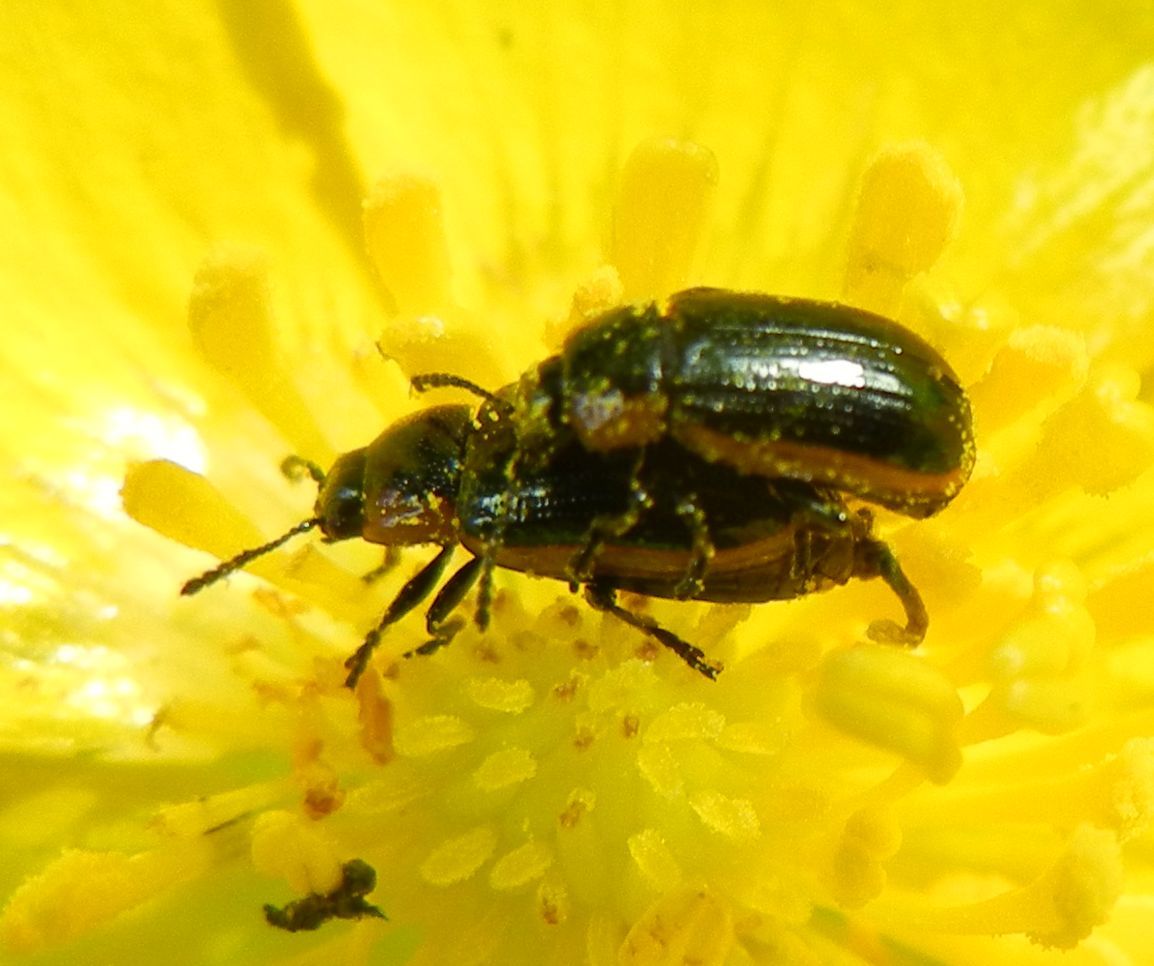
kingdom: Animalia
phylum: Arthropoda
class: Insecta
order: Coleoptera
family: Chrysomelidae
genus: Prasocuris
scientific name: Prasocuris marginella
